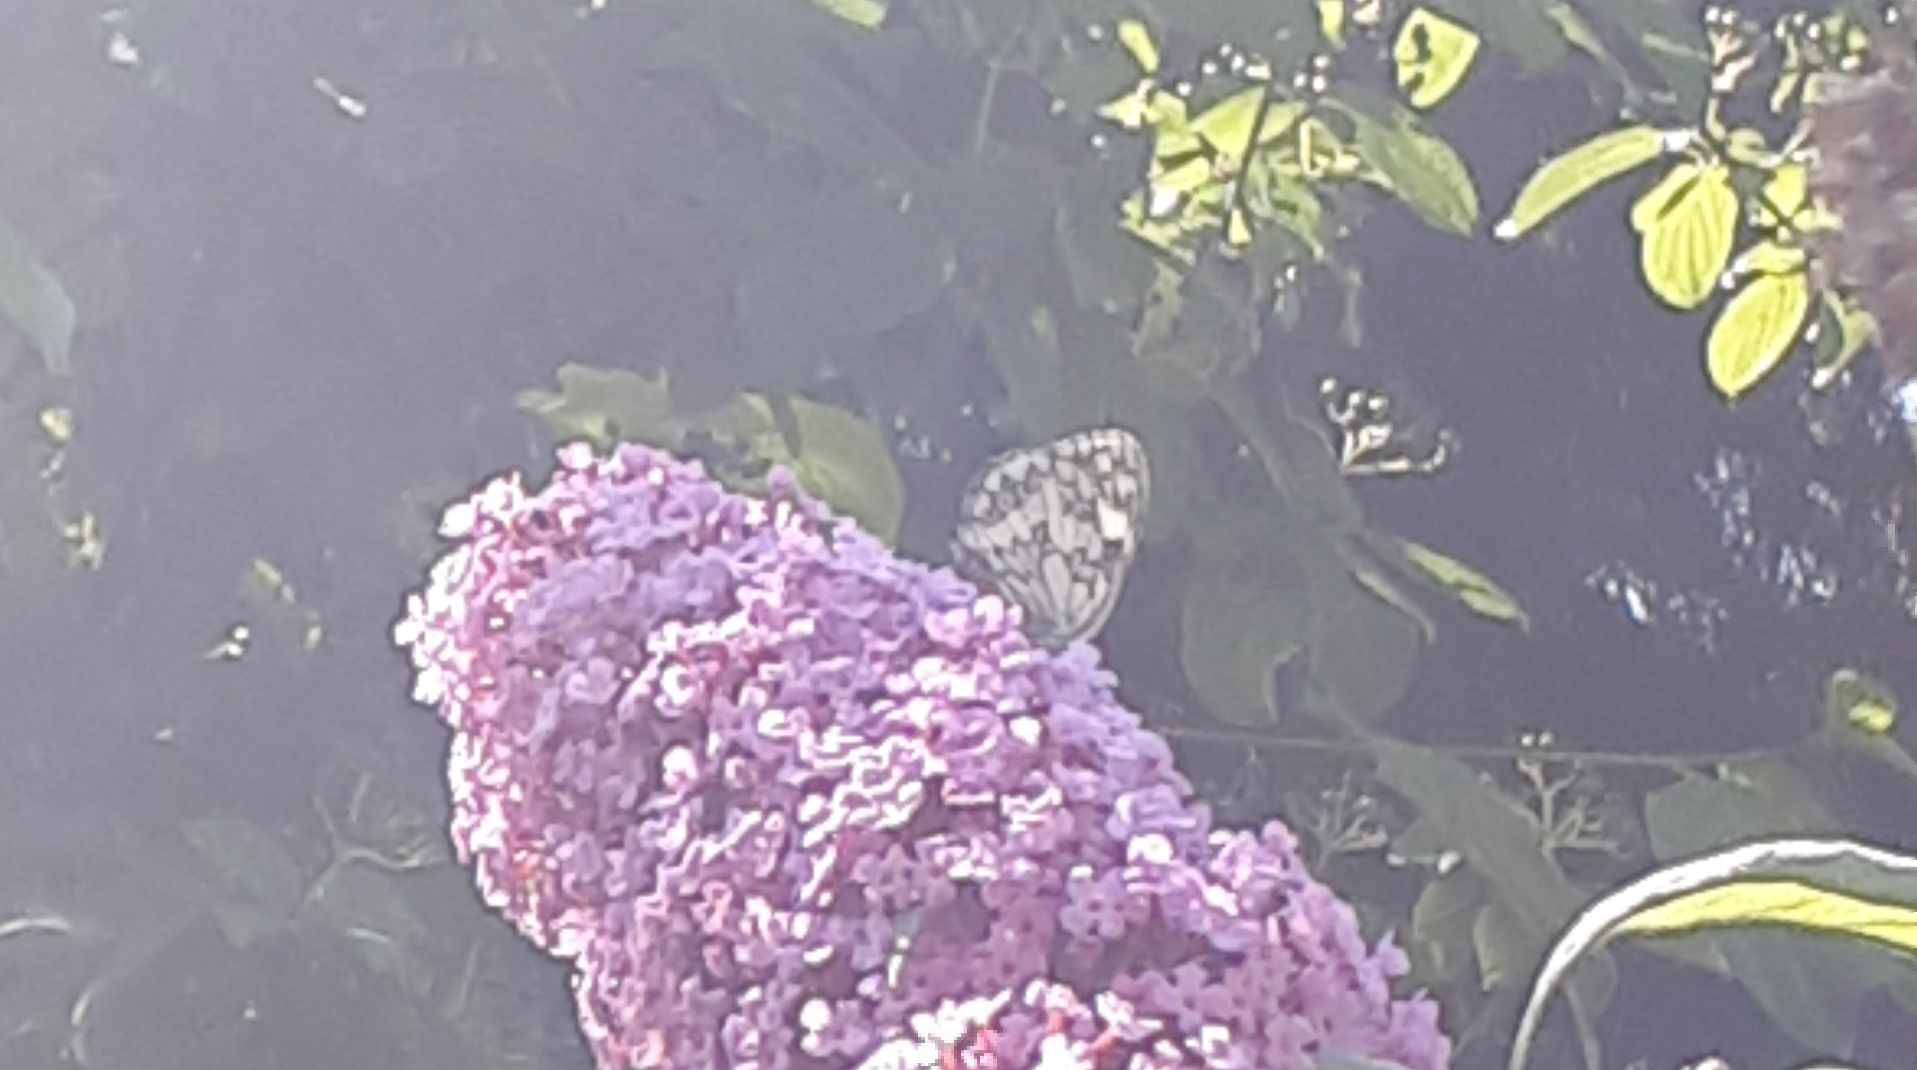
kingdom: Animalia
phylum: Arthropoda
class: Insecta
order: Lepidoptera
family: Nymphalidae
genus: Melanargia
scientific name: Melanargia galathea
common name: Marbled white
